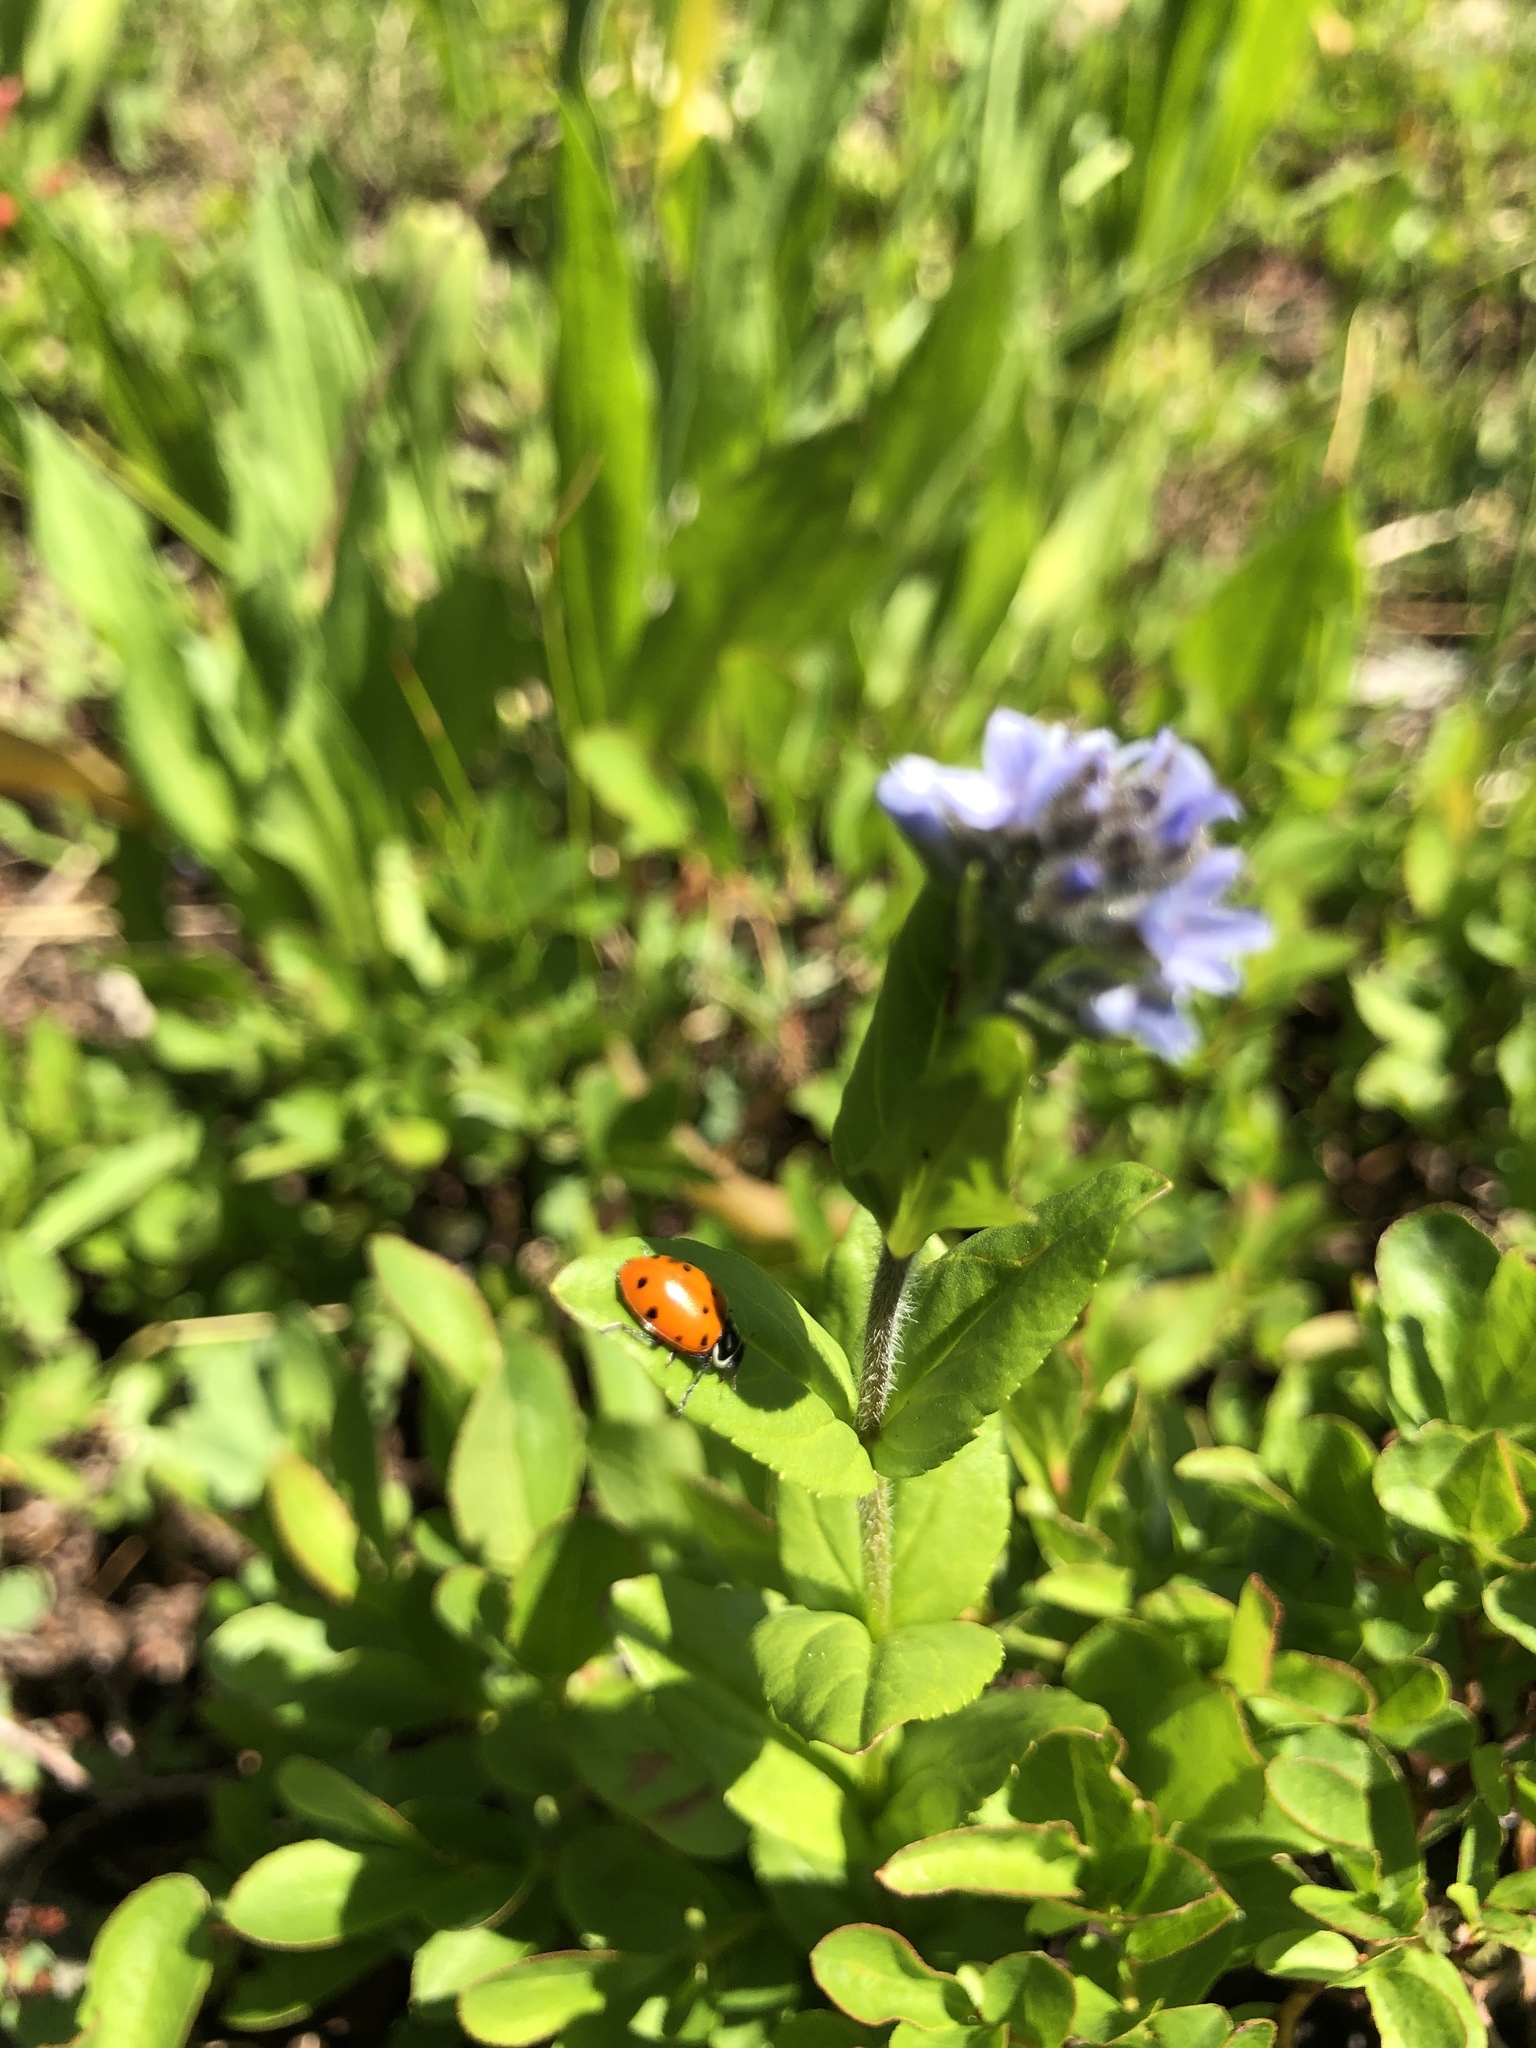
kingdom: Animalia
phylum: Arthropoda
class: Insecta
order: Coleoptera
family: Coccinellidae
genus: Hippodamia
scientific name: Hippodamia convergens
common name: Convergent lady beetle
